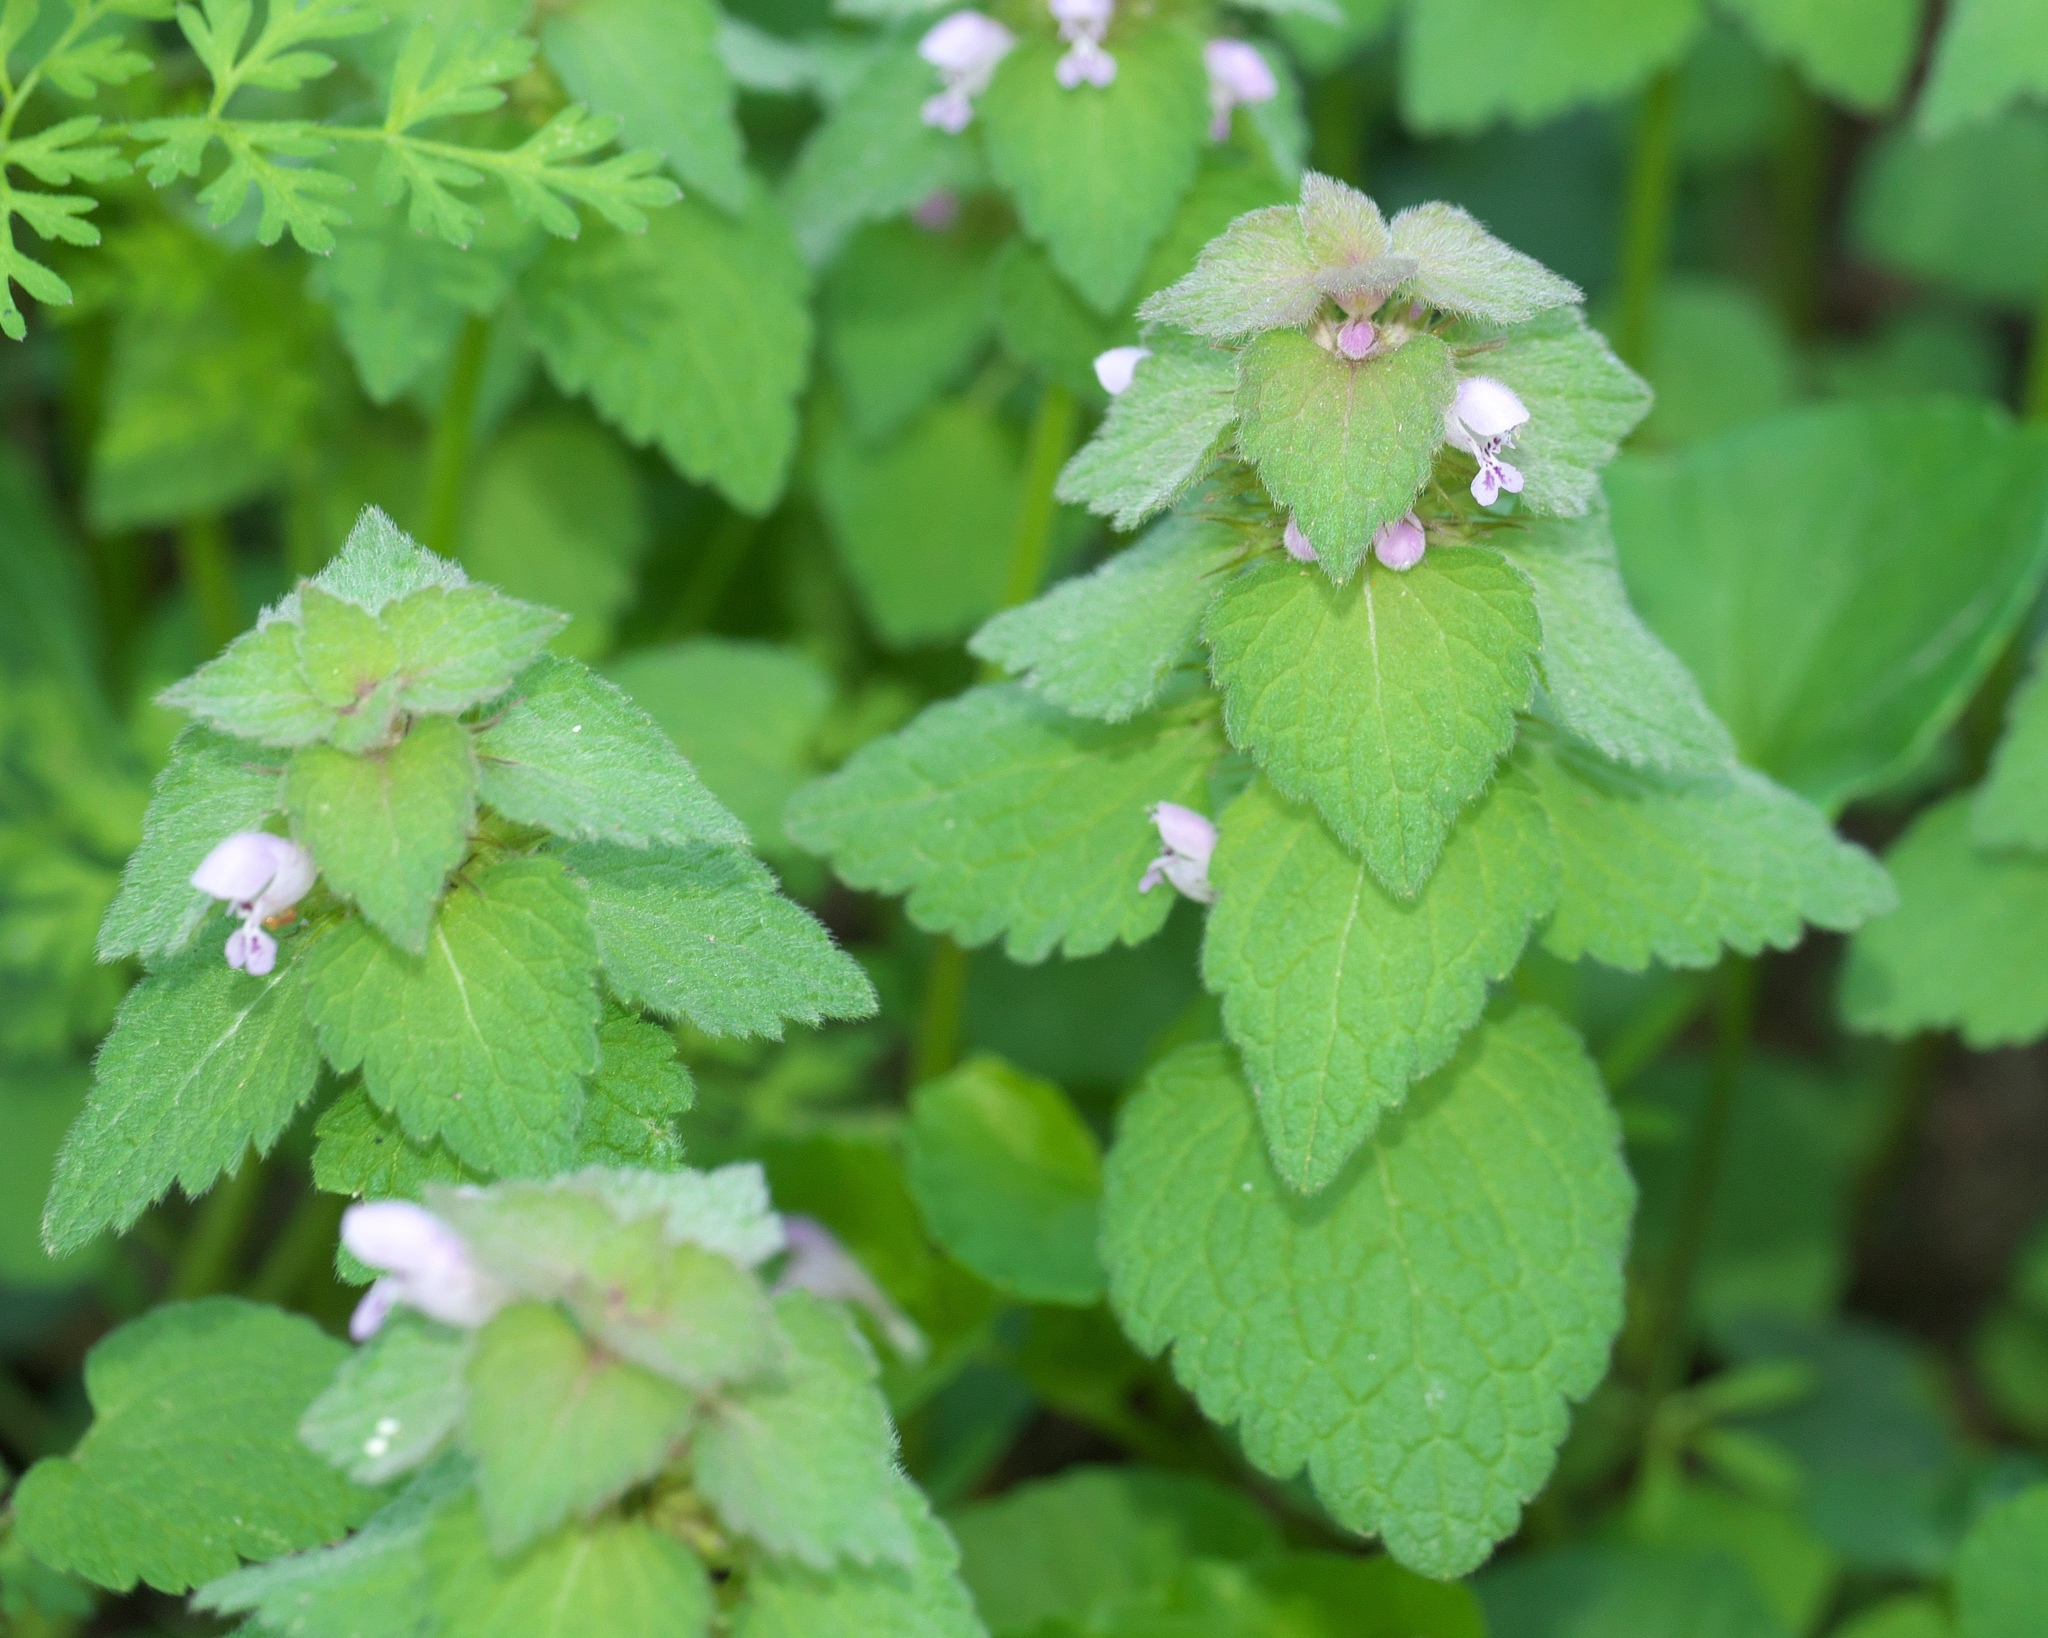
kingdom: Plantae
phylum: Tracheophyta
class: Magnoliopsida
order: Lamiales
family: Lamiaceae
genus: Lamium
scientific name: Lamium purpureum
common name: Red dead-nettle
